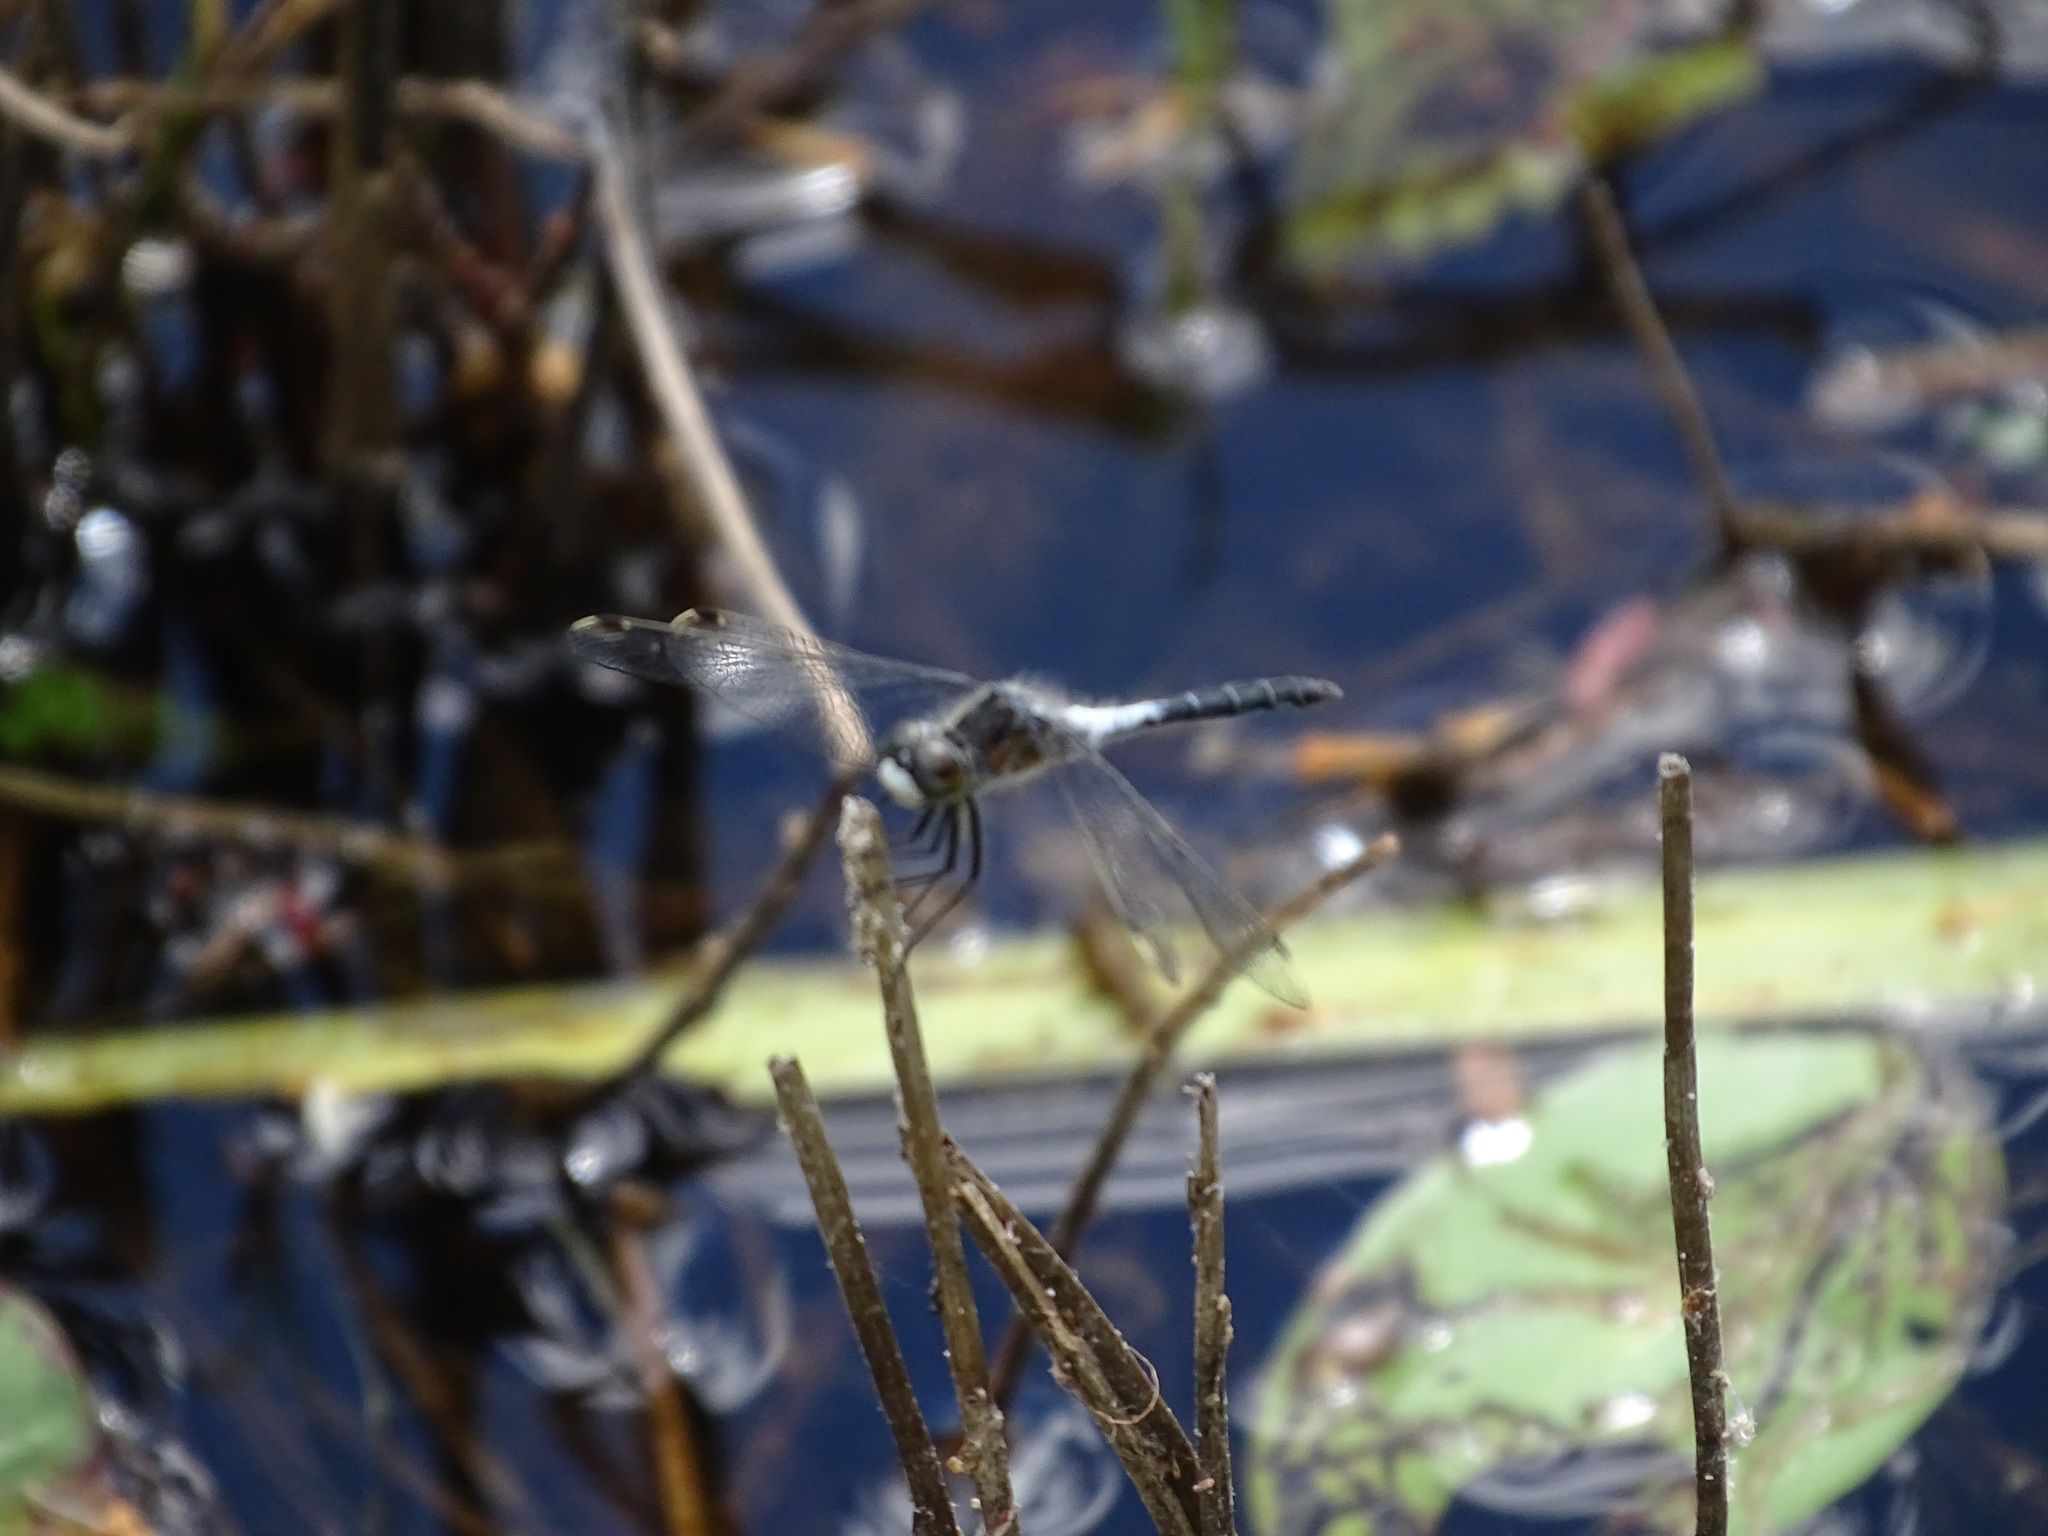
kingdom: Animalia
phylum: Arthropoda
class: Insecta
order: Odonata
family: Libellulidae
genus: Leucorrhinia
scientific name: Leucorrhinia frigida
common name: Frosted whiteface
